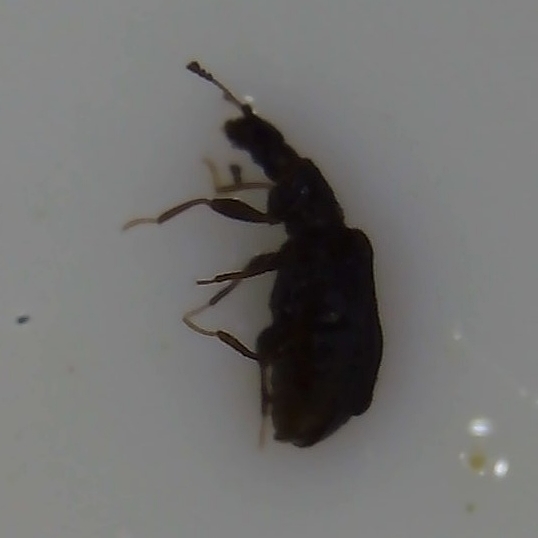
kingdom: Animalia
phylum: Arthropoda
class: Insecta
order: Coleoptera
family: Latridiidae
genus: Cartodere
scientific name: Cartodere nodifer
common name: Humpbacked minute scavenger beetle
